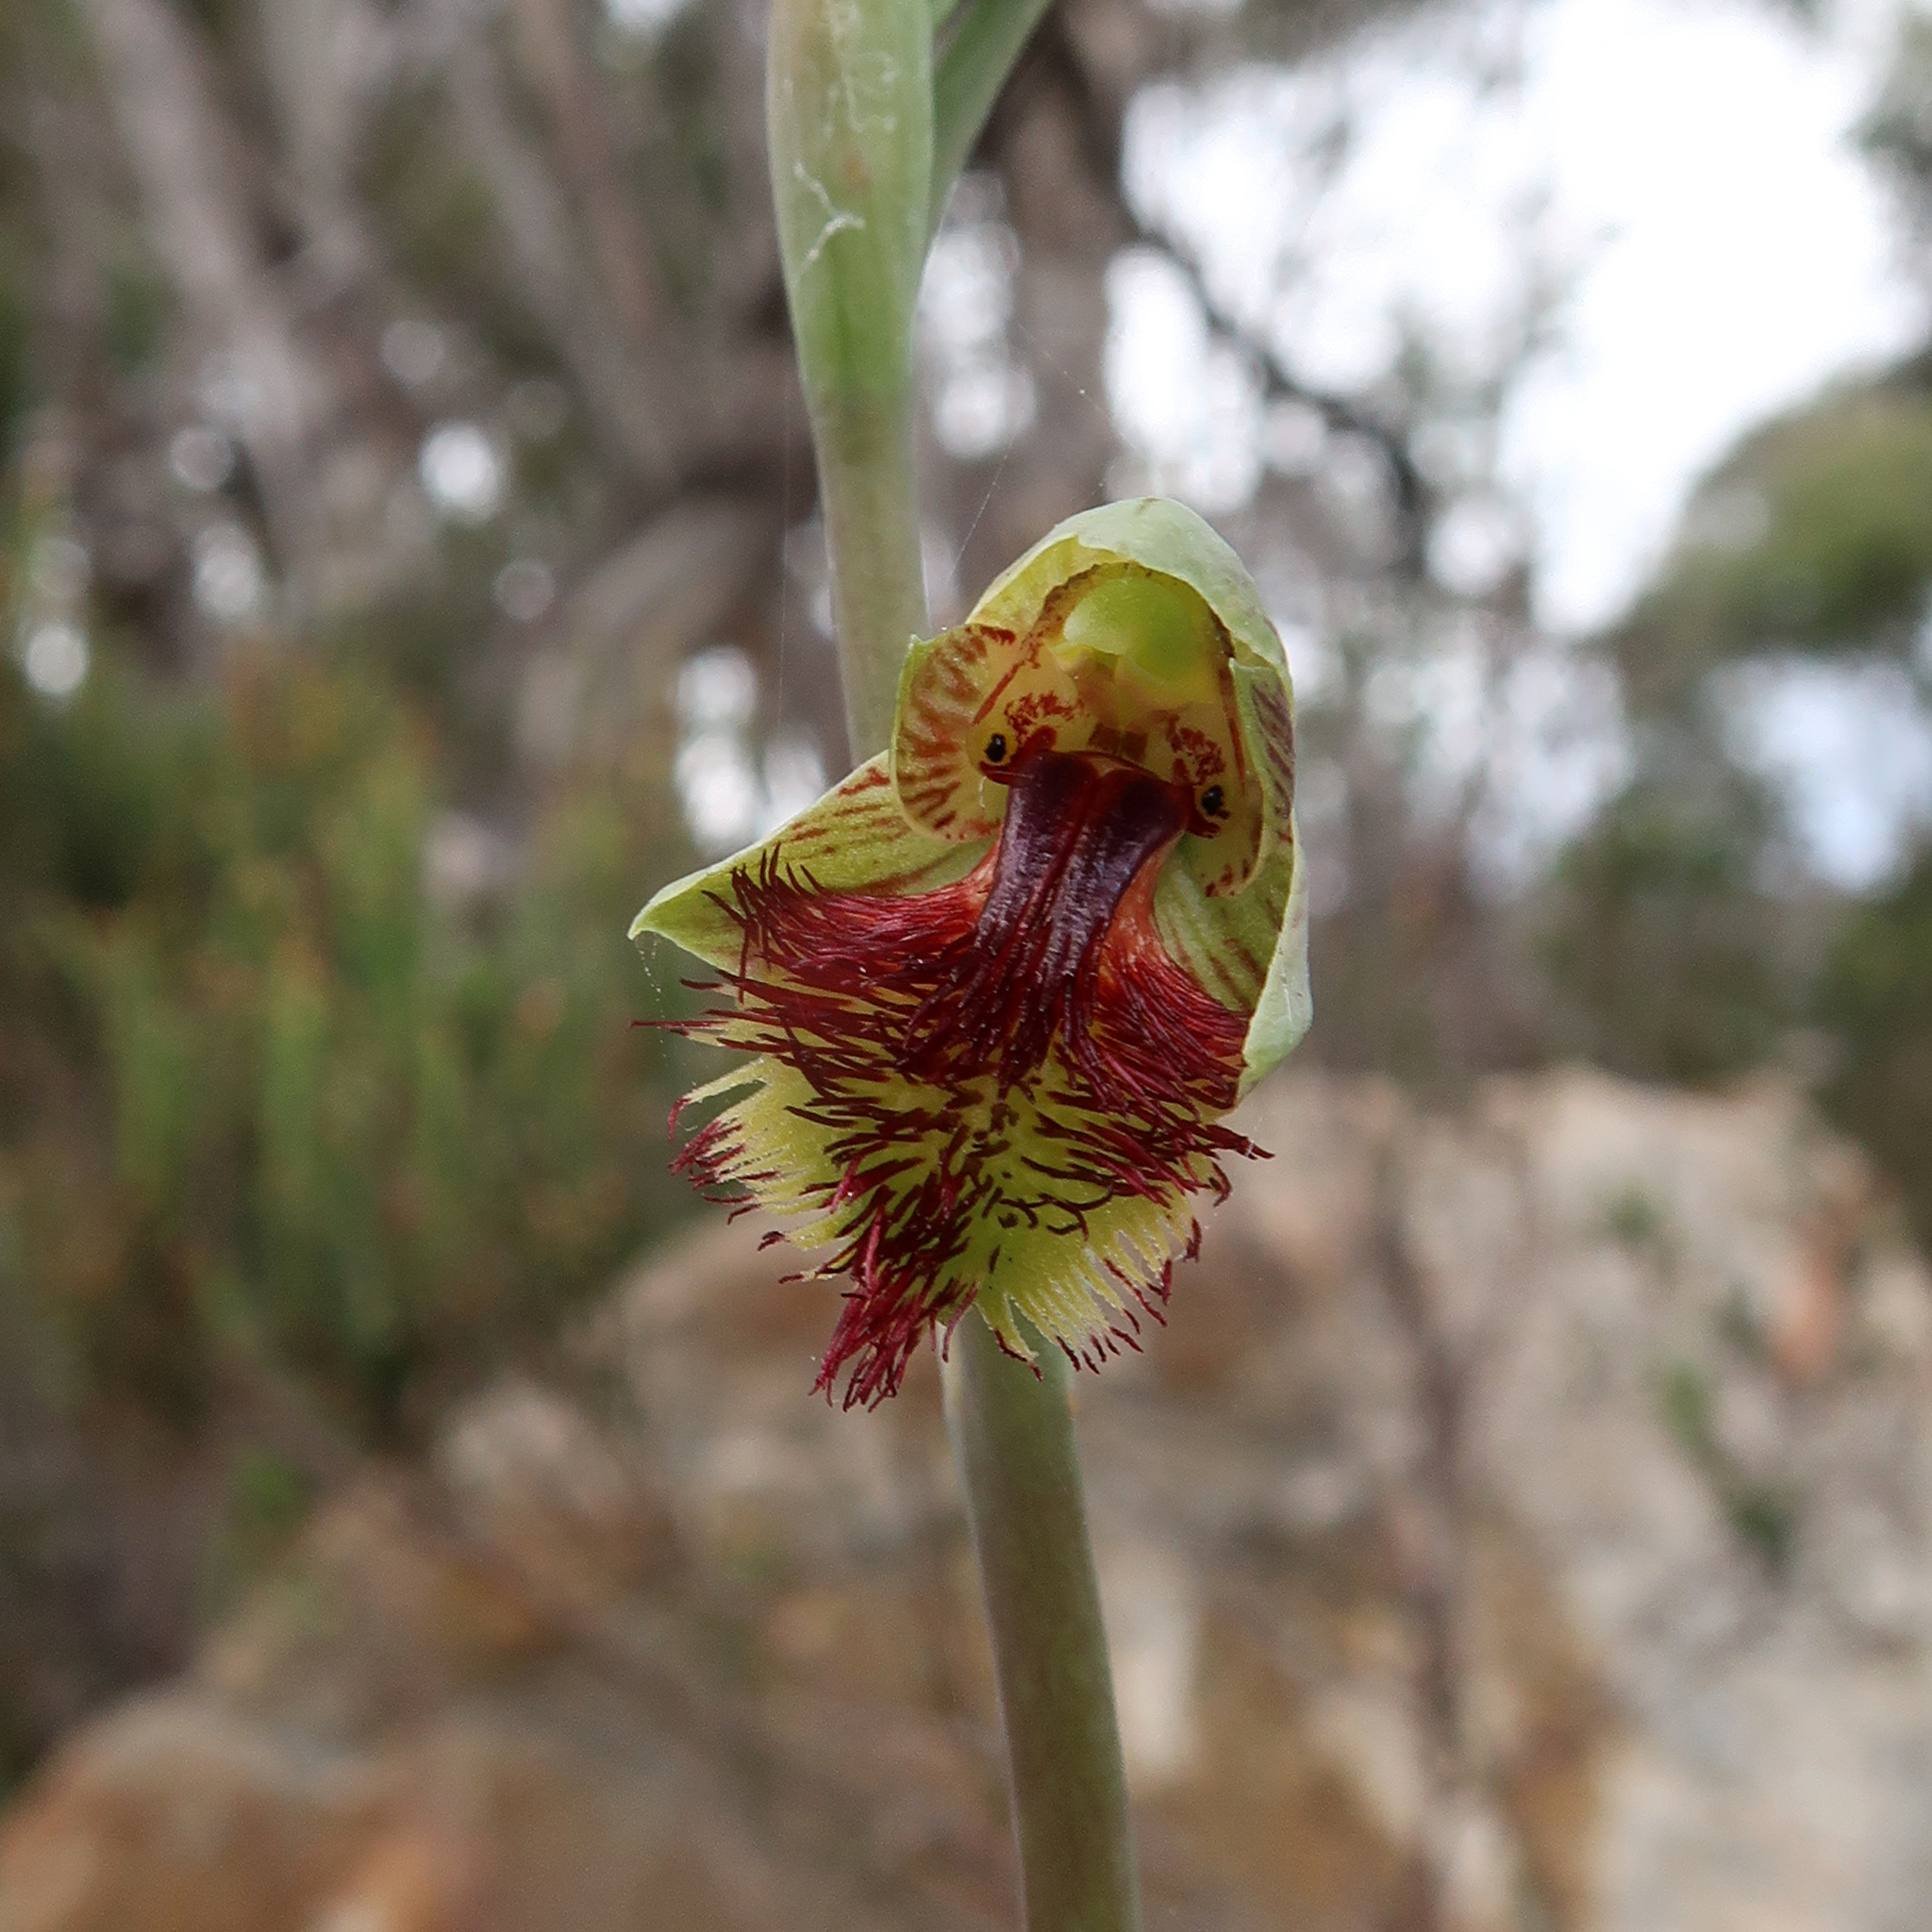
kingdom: Plantae
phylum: Tracheophyta
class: Liliopsida
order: Asparagales
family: Orchidaceae
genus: Calochilus
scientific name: Calochilus herbaceus
